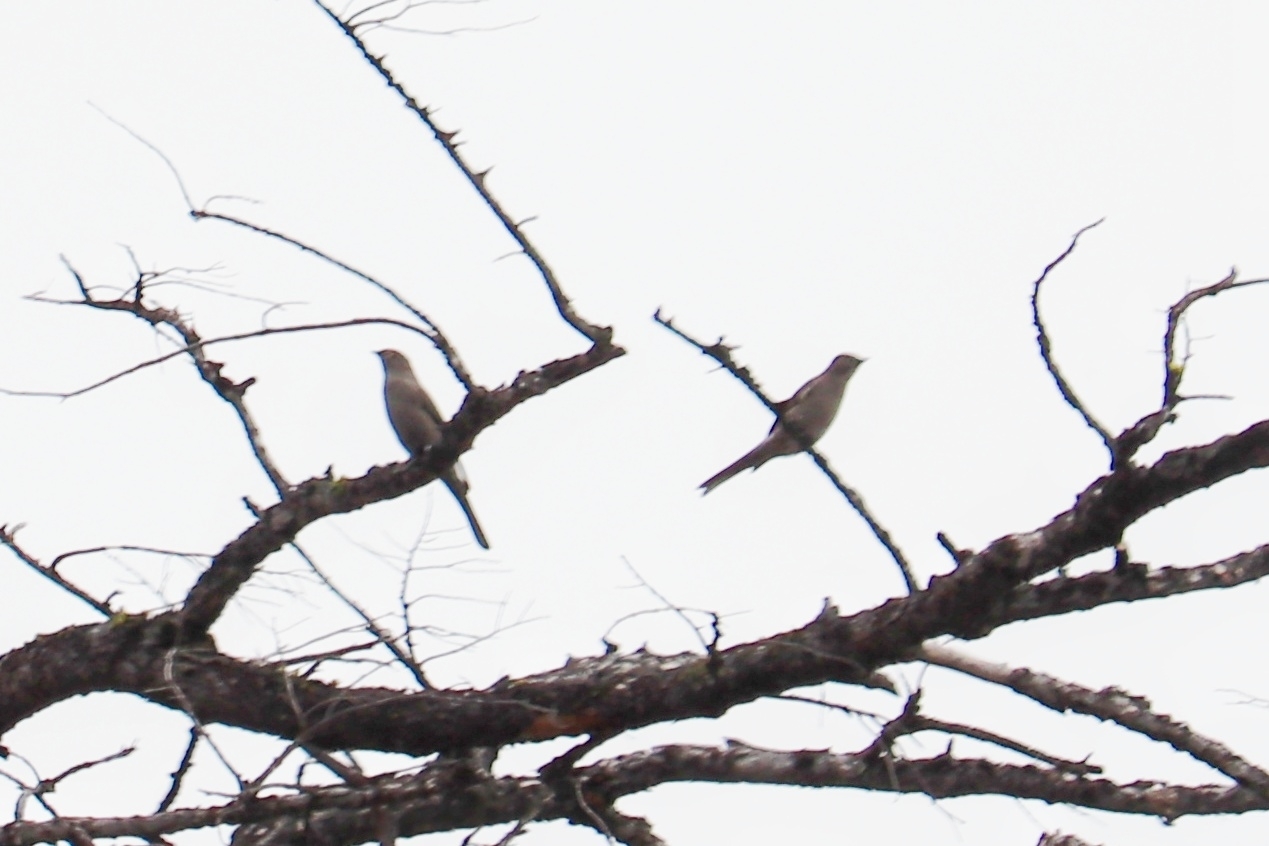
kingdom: Animalia
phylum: Chordata
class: Aves
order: Passeriformes
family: Turdidae
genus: Myadestes
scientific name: Myadestes townsendi
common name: Townsend's solitaire
